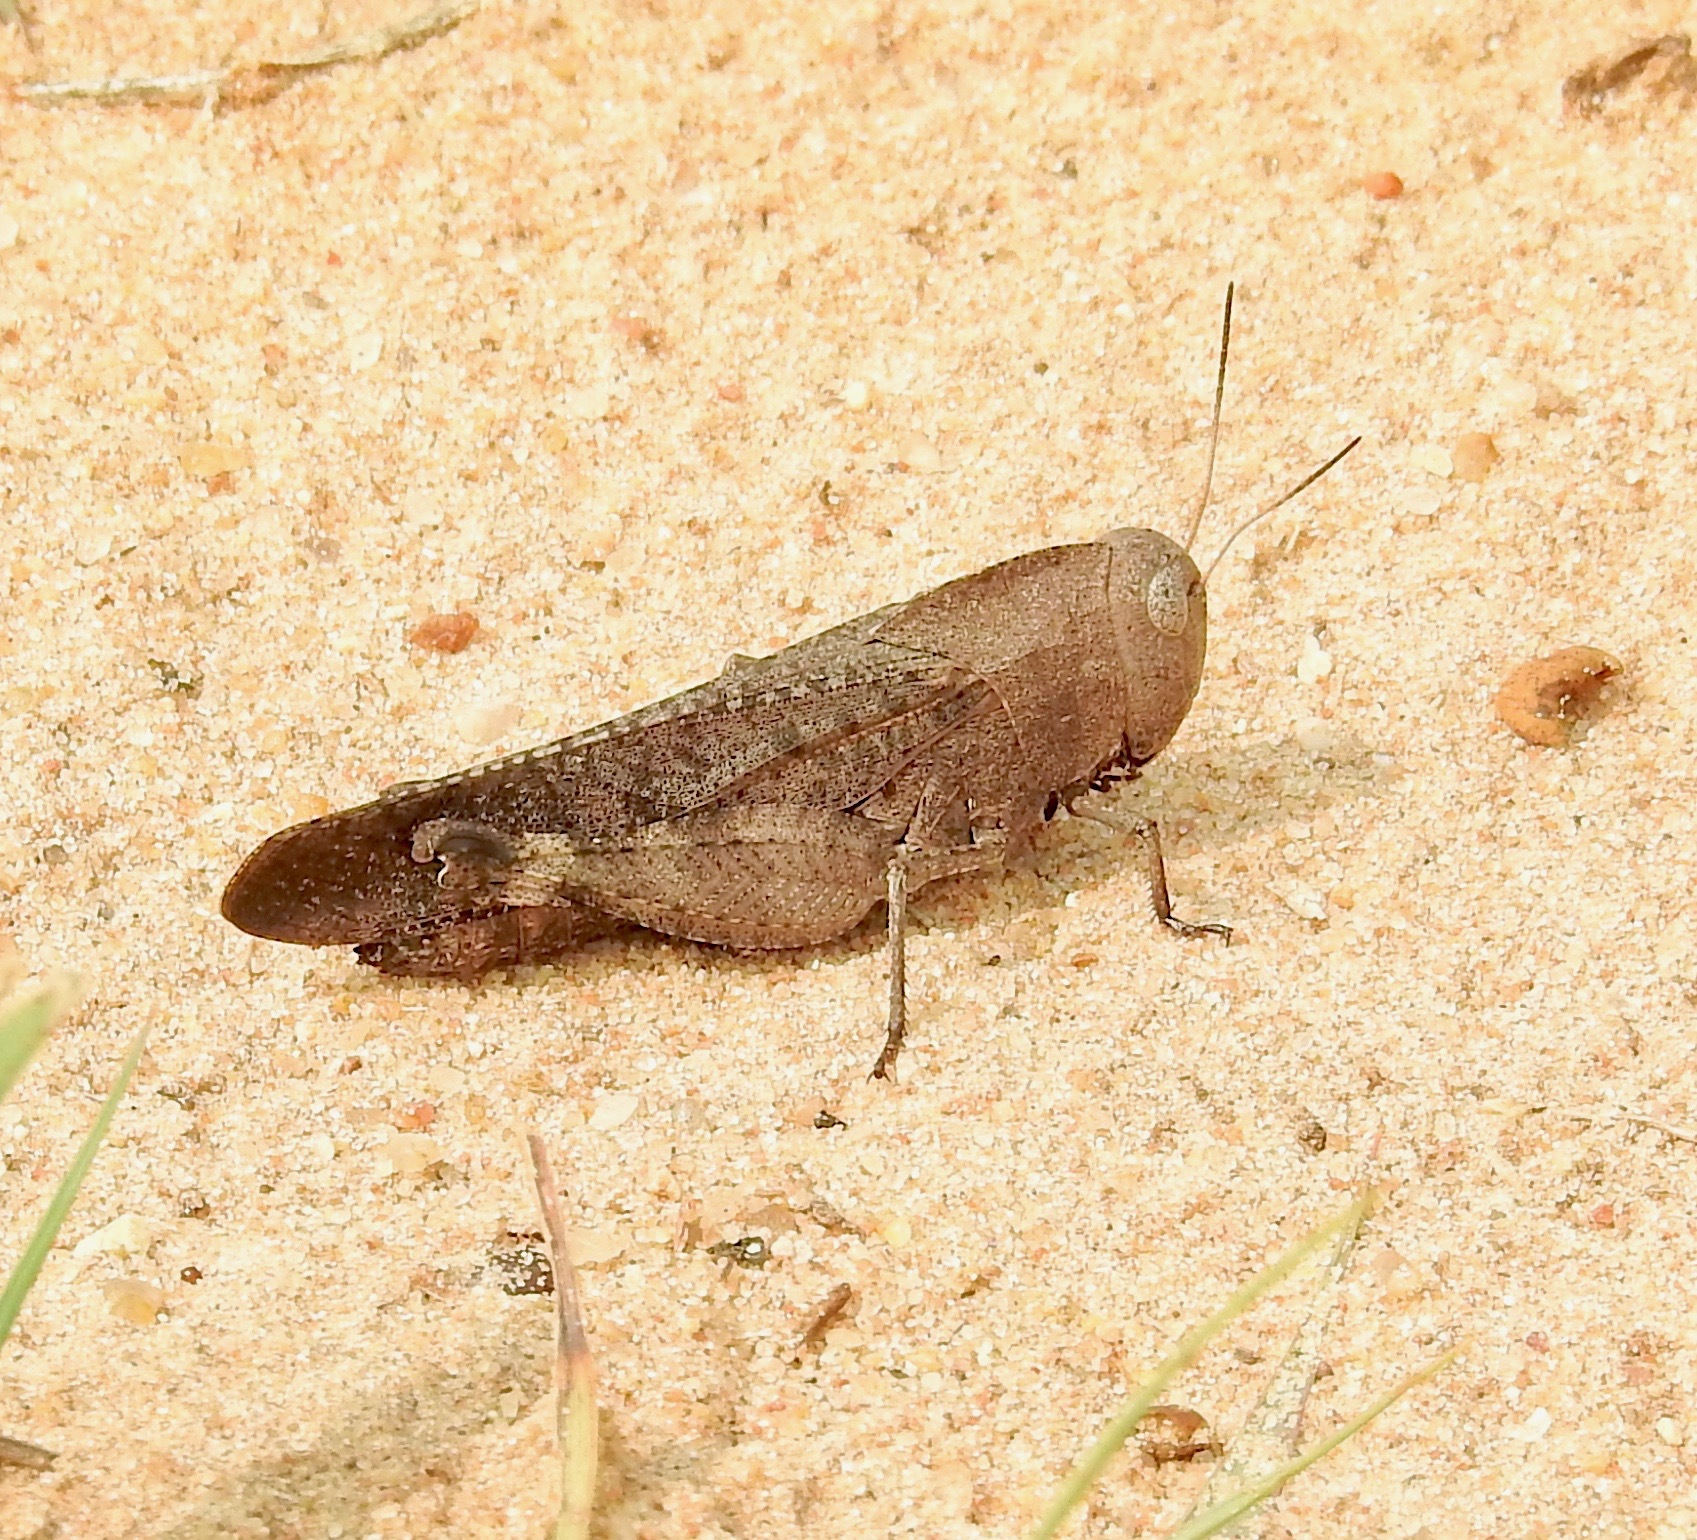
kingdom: Animalia
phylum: Arthropoda
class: Insecta
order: Orthoptera
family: Acrididae
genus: Arphia
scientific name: Arphia xanthoptera
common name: Autumn yellow-winged grasshopper
